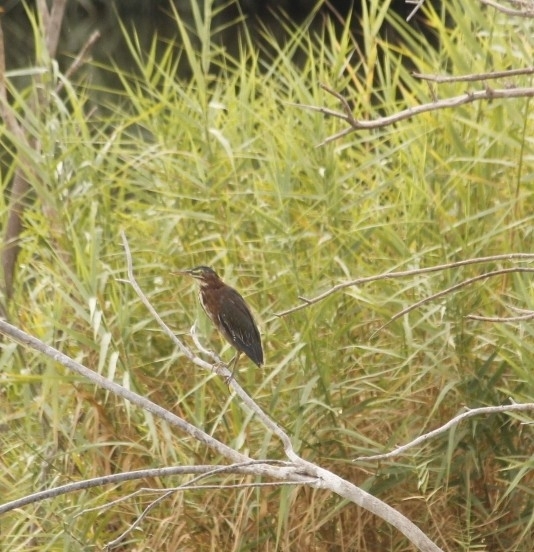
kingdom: Animalia
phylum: Chordata
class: Aves
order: Pelecaniformes
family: Ardeidae
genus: Butorides
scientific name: Butorides virescens
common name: Green heron
